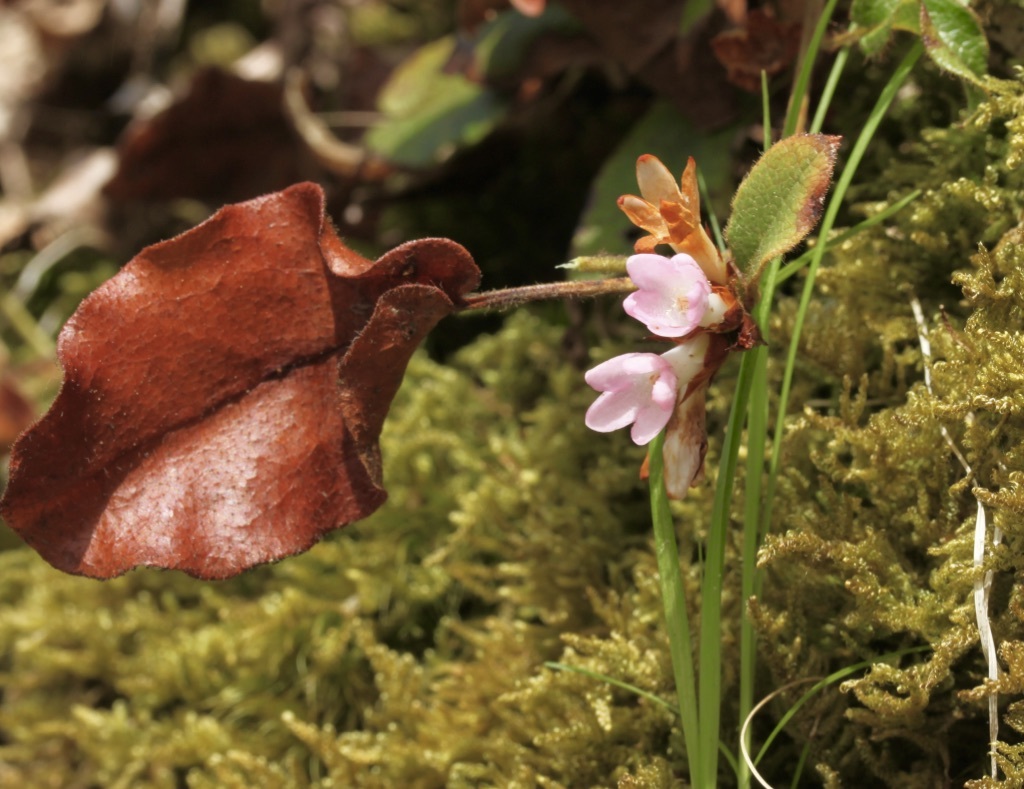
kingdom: Plantae
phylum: Tracheophyta
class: Magnoliopsida
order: Ericales
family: Ericaceae
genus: Epigaea
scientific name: Epigaea repens
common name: Gravelroot
